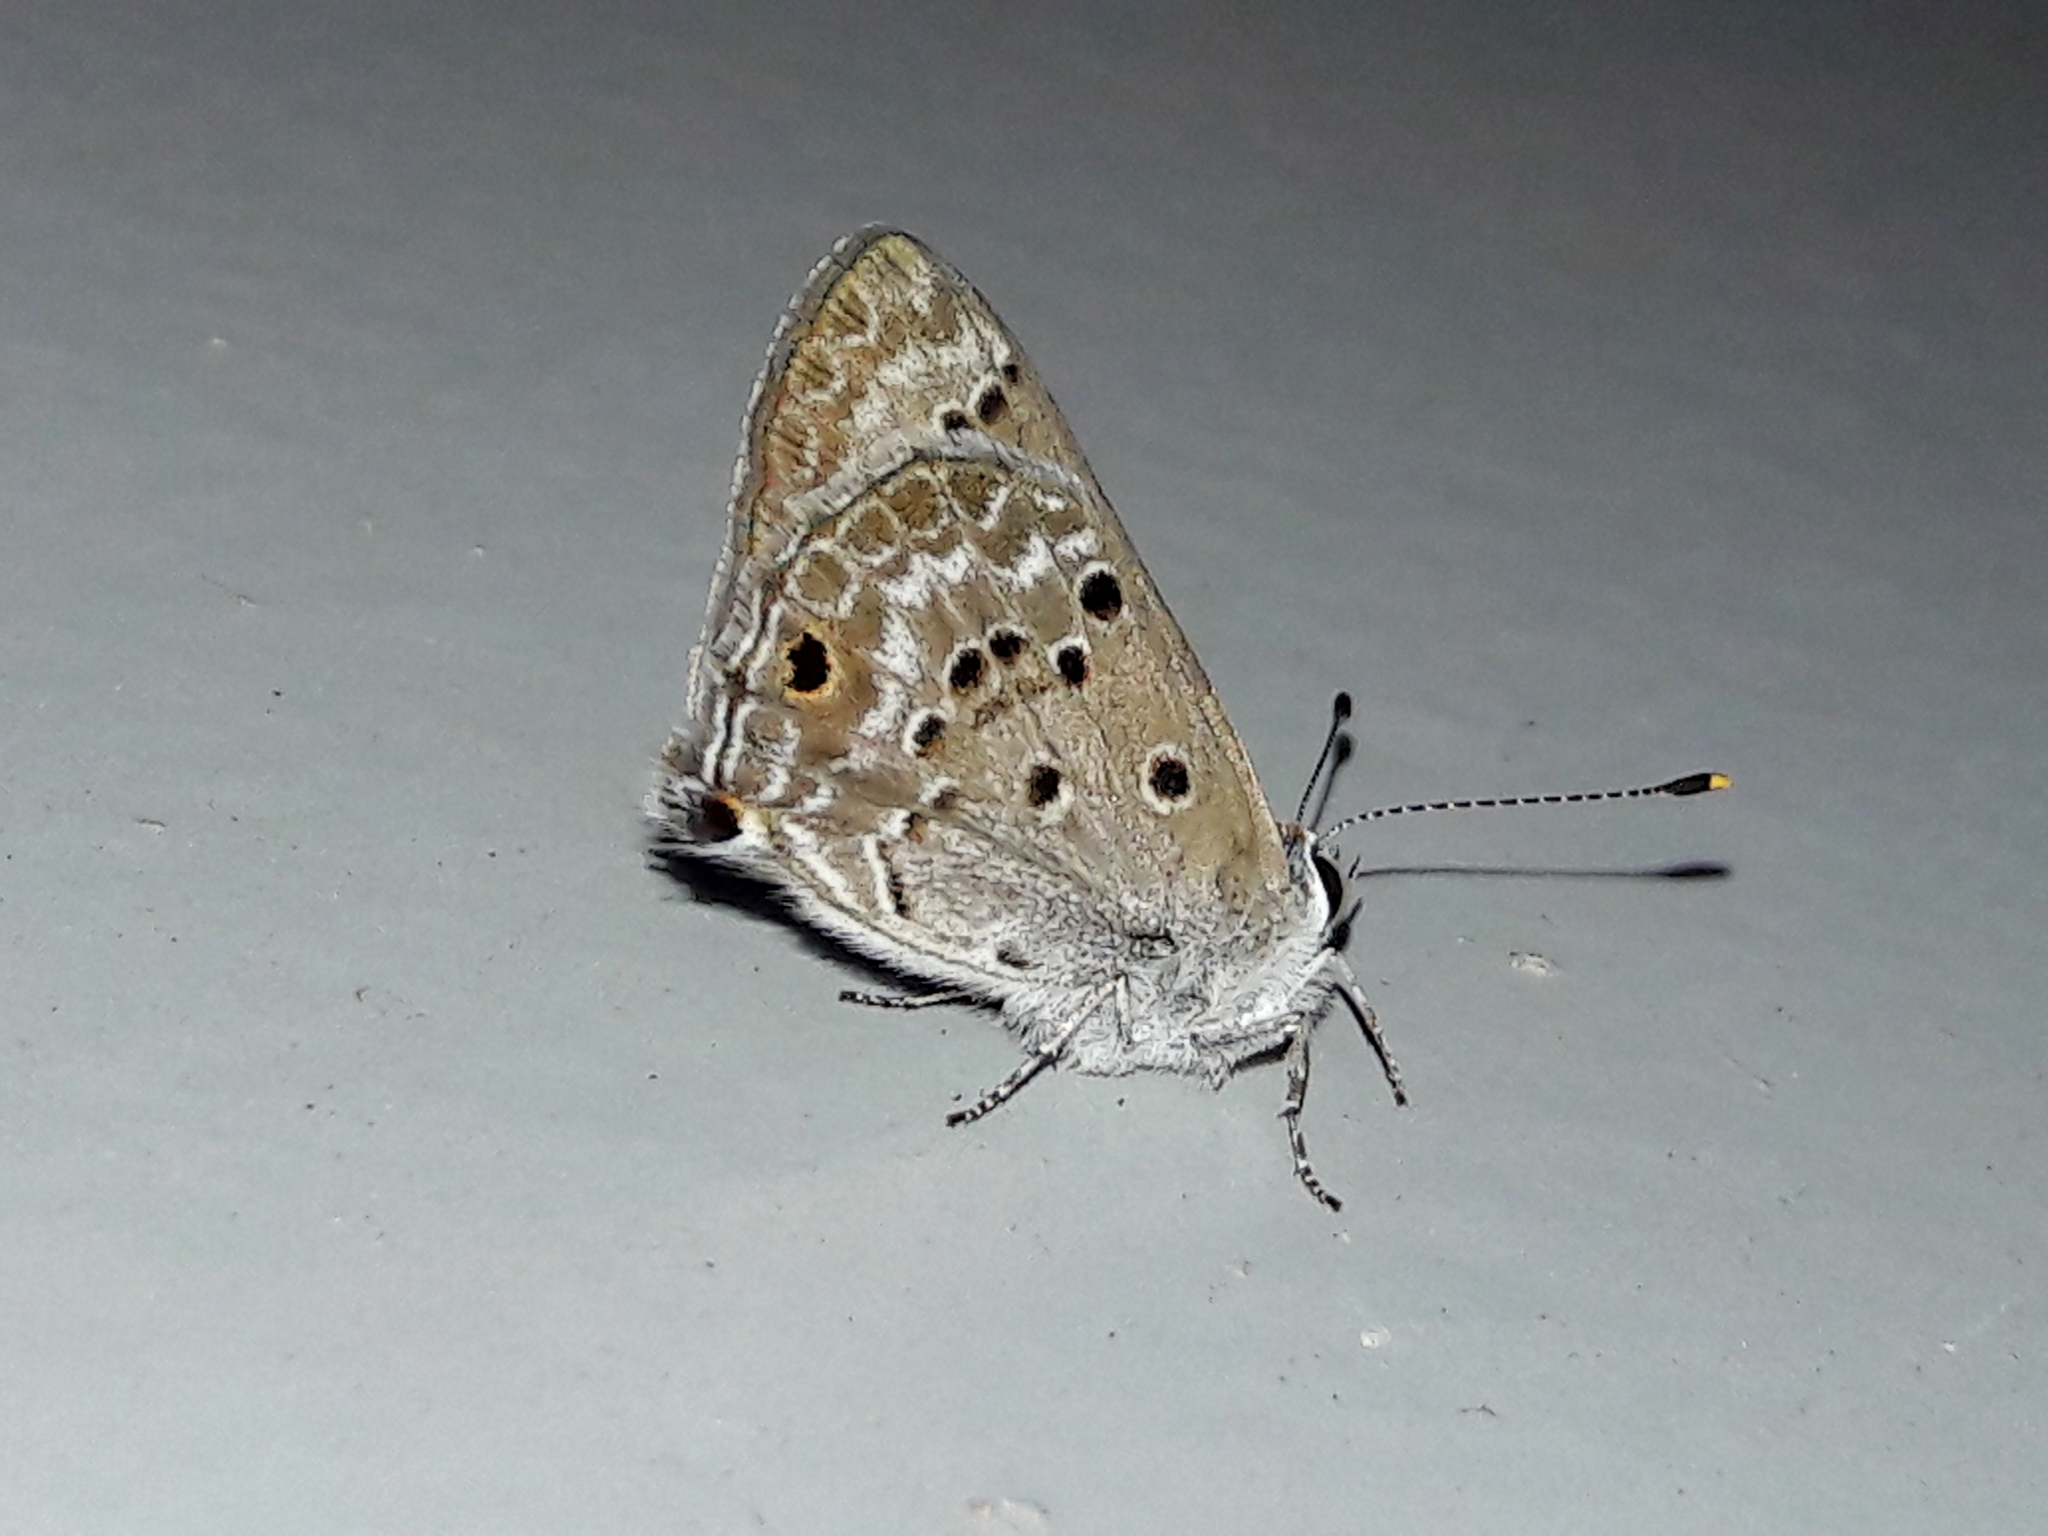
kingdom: Animalia
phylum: Arthropoda
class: Insecta
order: Lepidoptera
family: Lycaenidae
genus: Strymon
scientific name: Strymon bubastus
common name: Bubastes hairstreak
